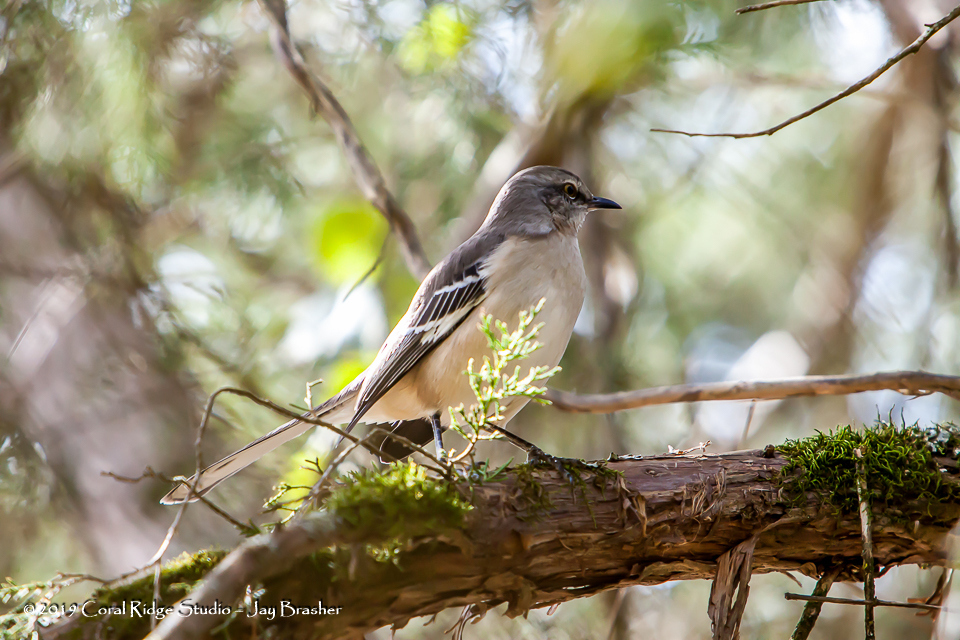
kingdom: Animalia
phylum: Chordata
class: Aves
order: Passeriformes
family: Mimidae
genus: Mimus
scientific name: Mimus polyglottos
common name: Northern mockingbird
